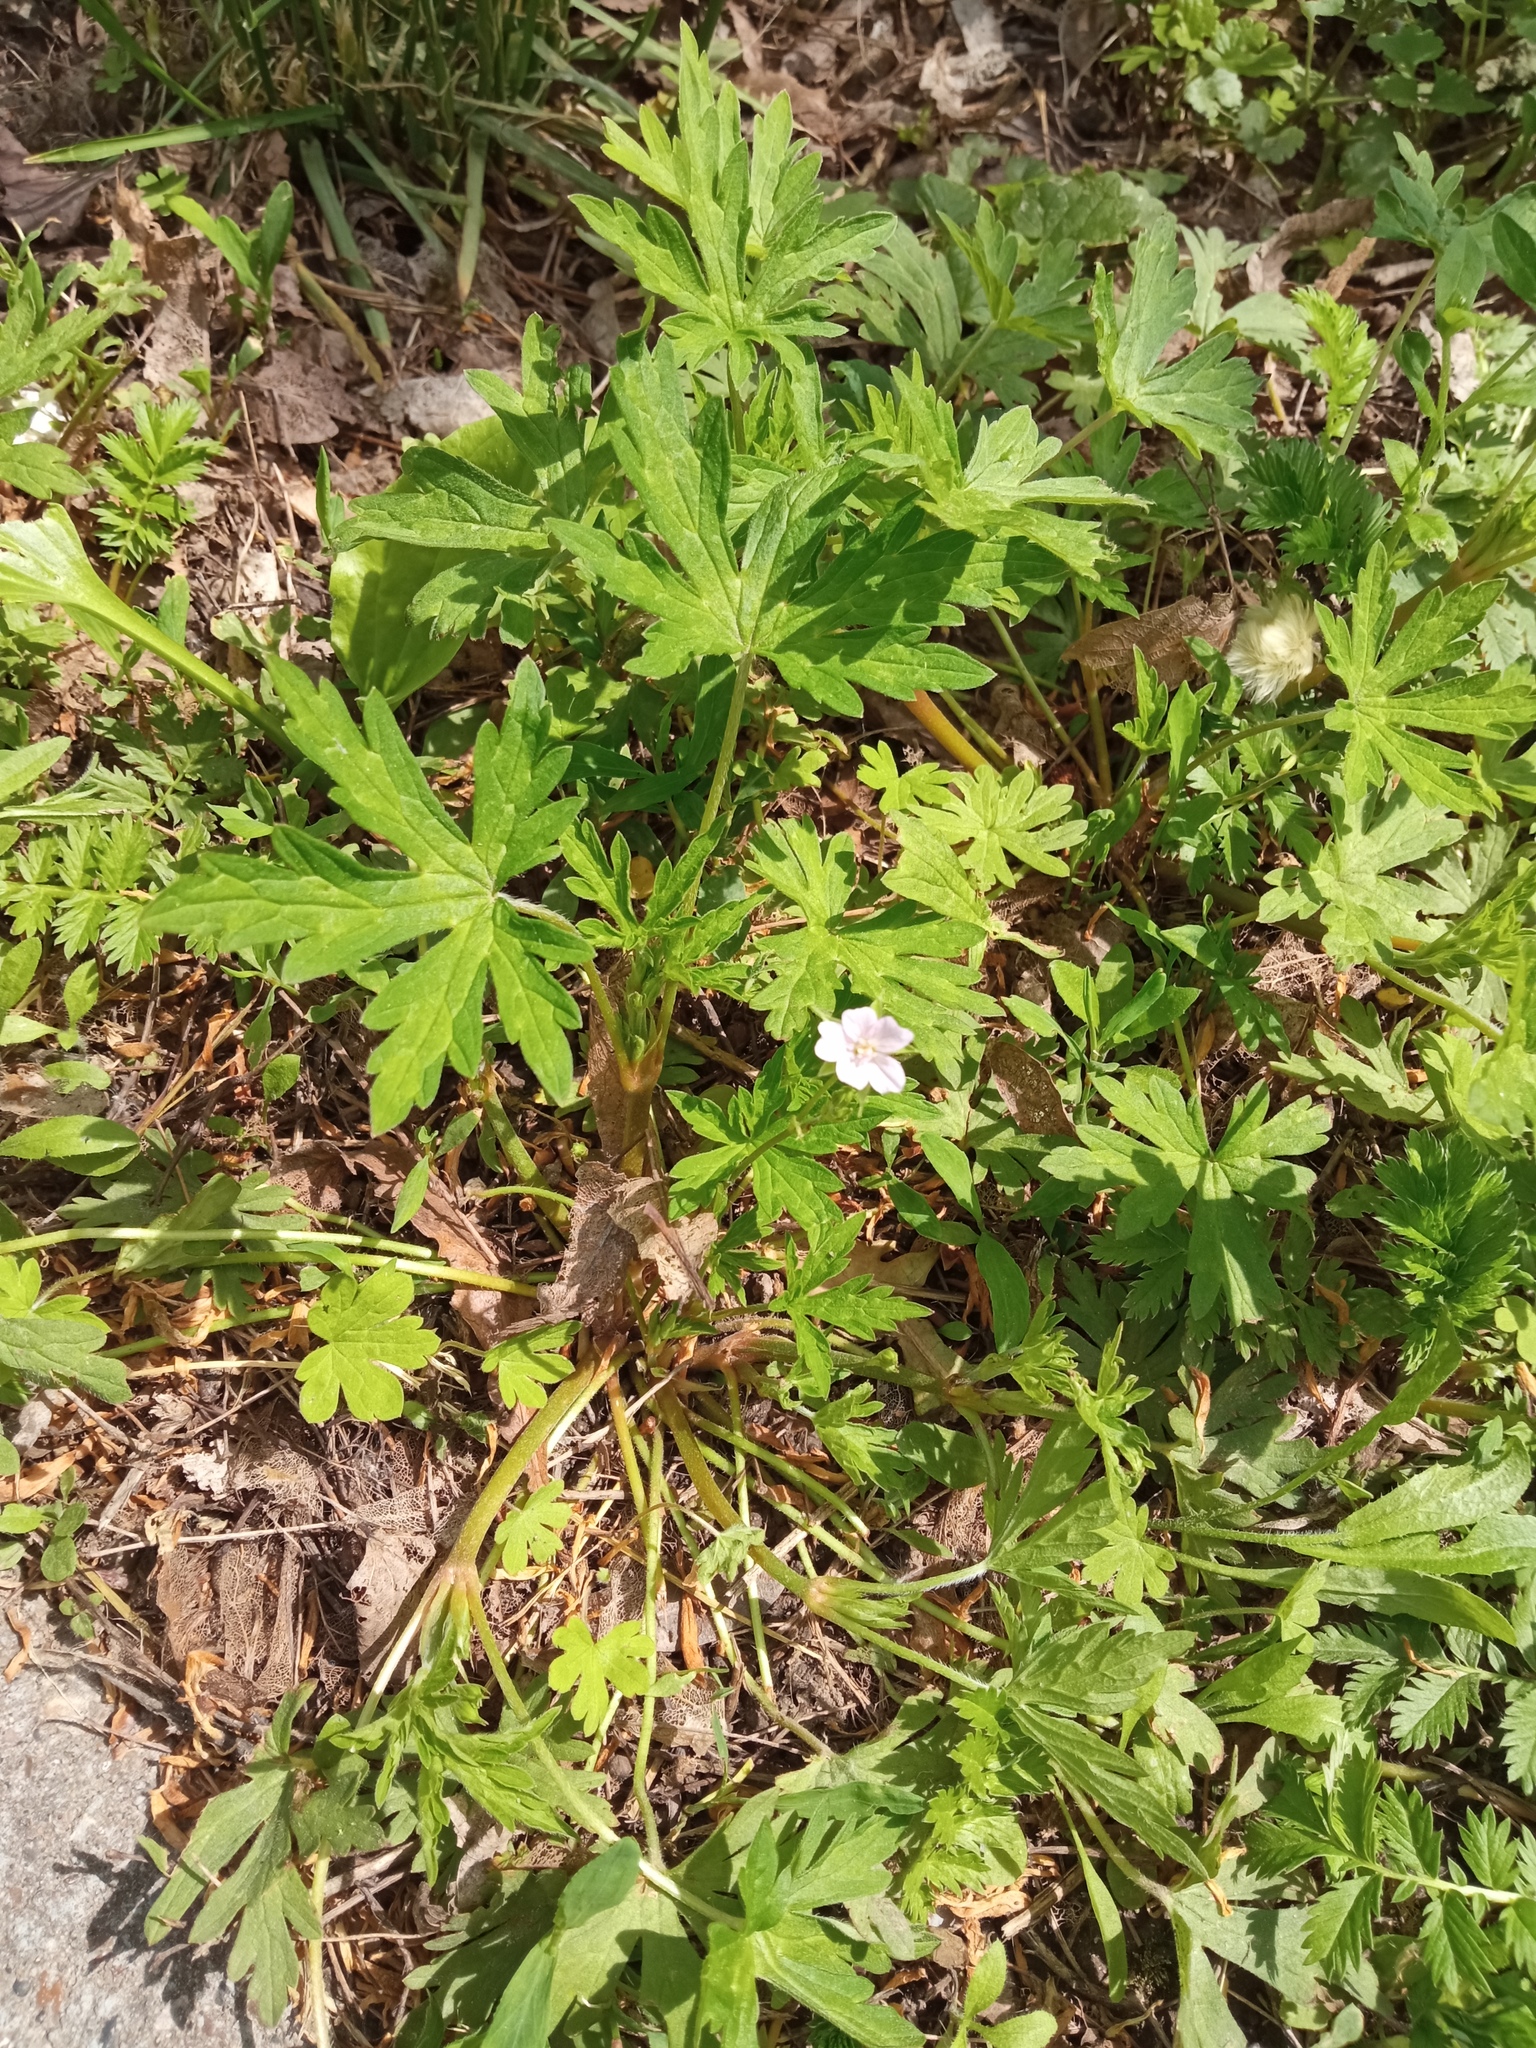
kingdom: Plantae
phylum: Tracheophyta
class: Magnoliopsida
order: Geraniales
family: Geraniaceae
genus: Geranium
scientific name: Geranium sibiricum
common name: Siberian crane's-bill
